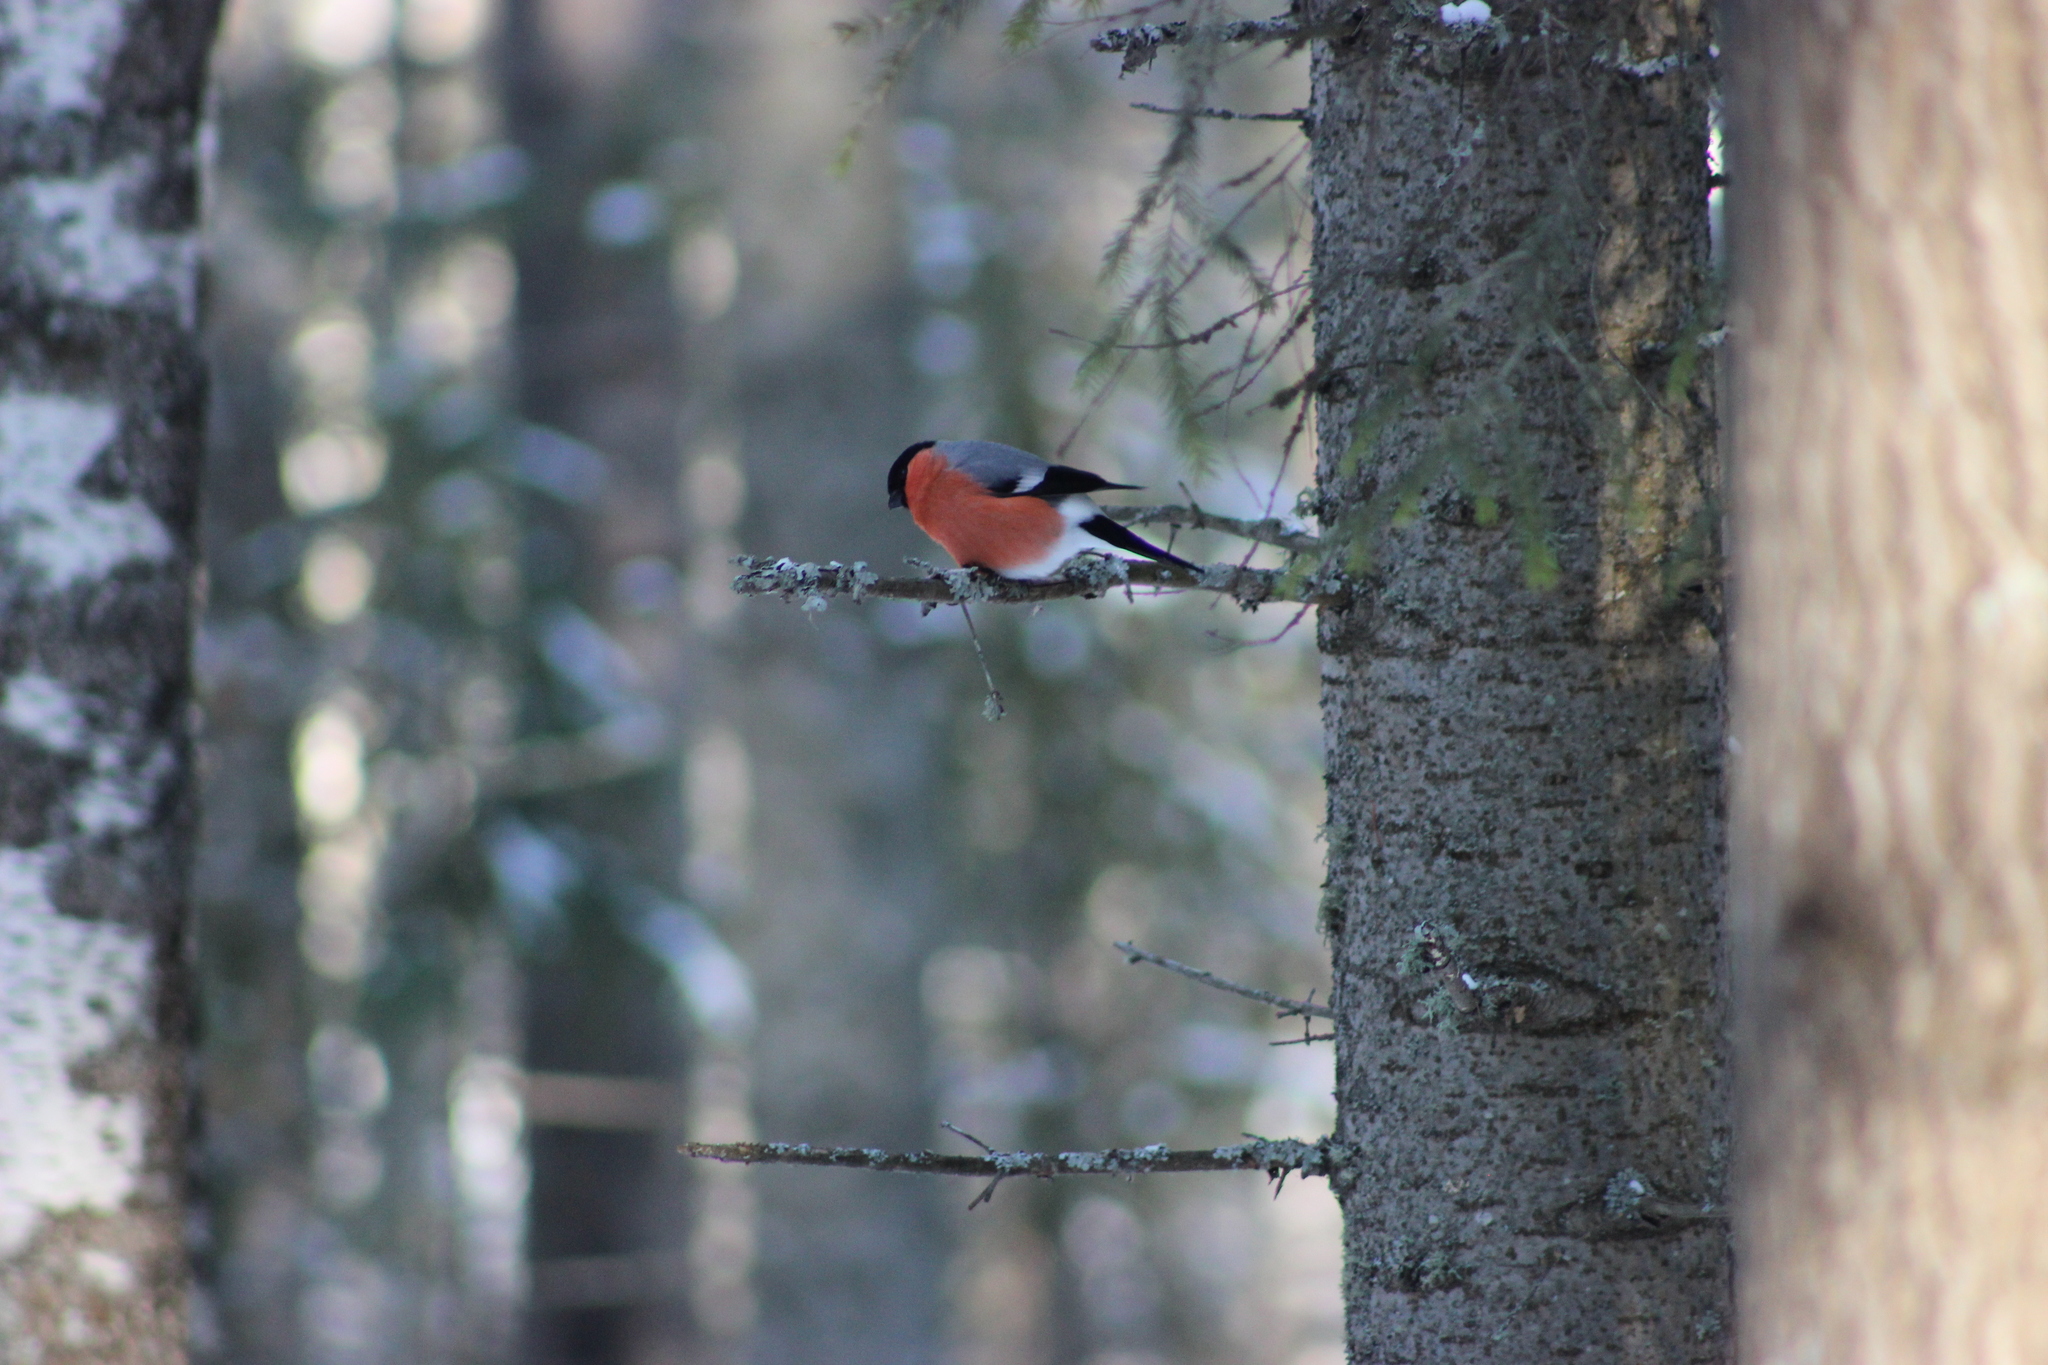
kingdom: Animalia
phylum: Chordata
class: Aves
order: Passeriformes
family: Fringillidae
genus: Pyrrhula
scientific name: Pyrrhula pyrrhula
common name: Eurasian bullfinch
